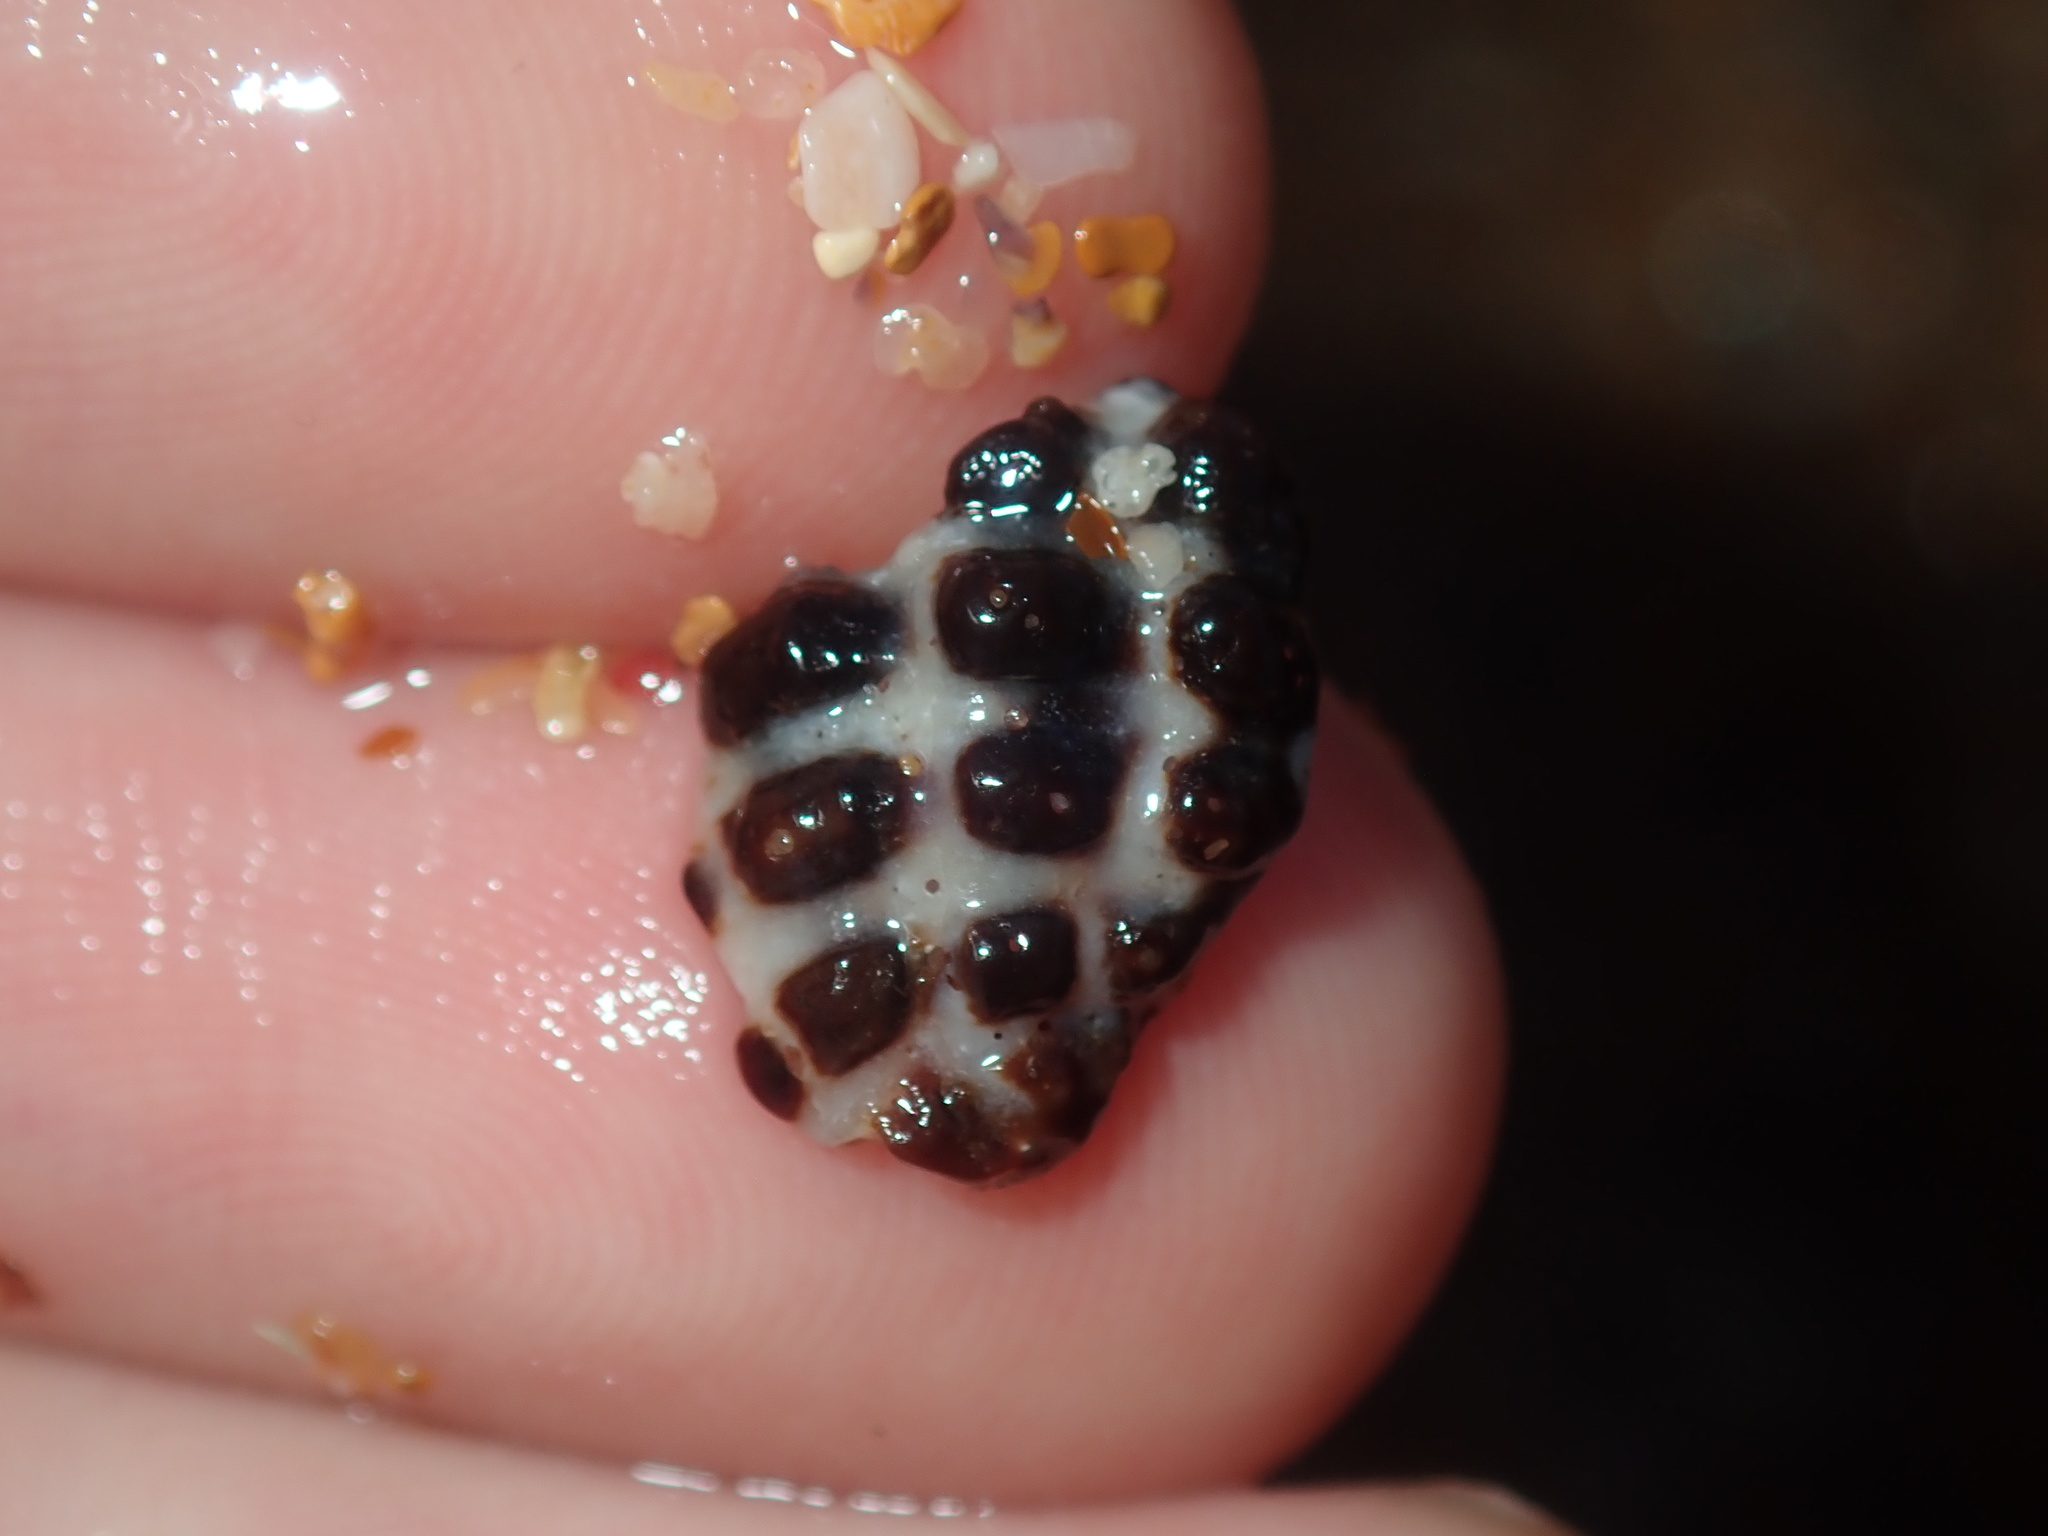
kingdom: Animalia
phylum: Mollusca
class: Gastropoda
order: Neogastropoda
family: Muricidae
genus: Tenguella
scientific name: Tenguella marginalba
